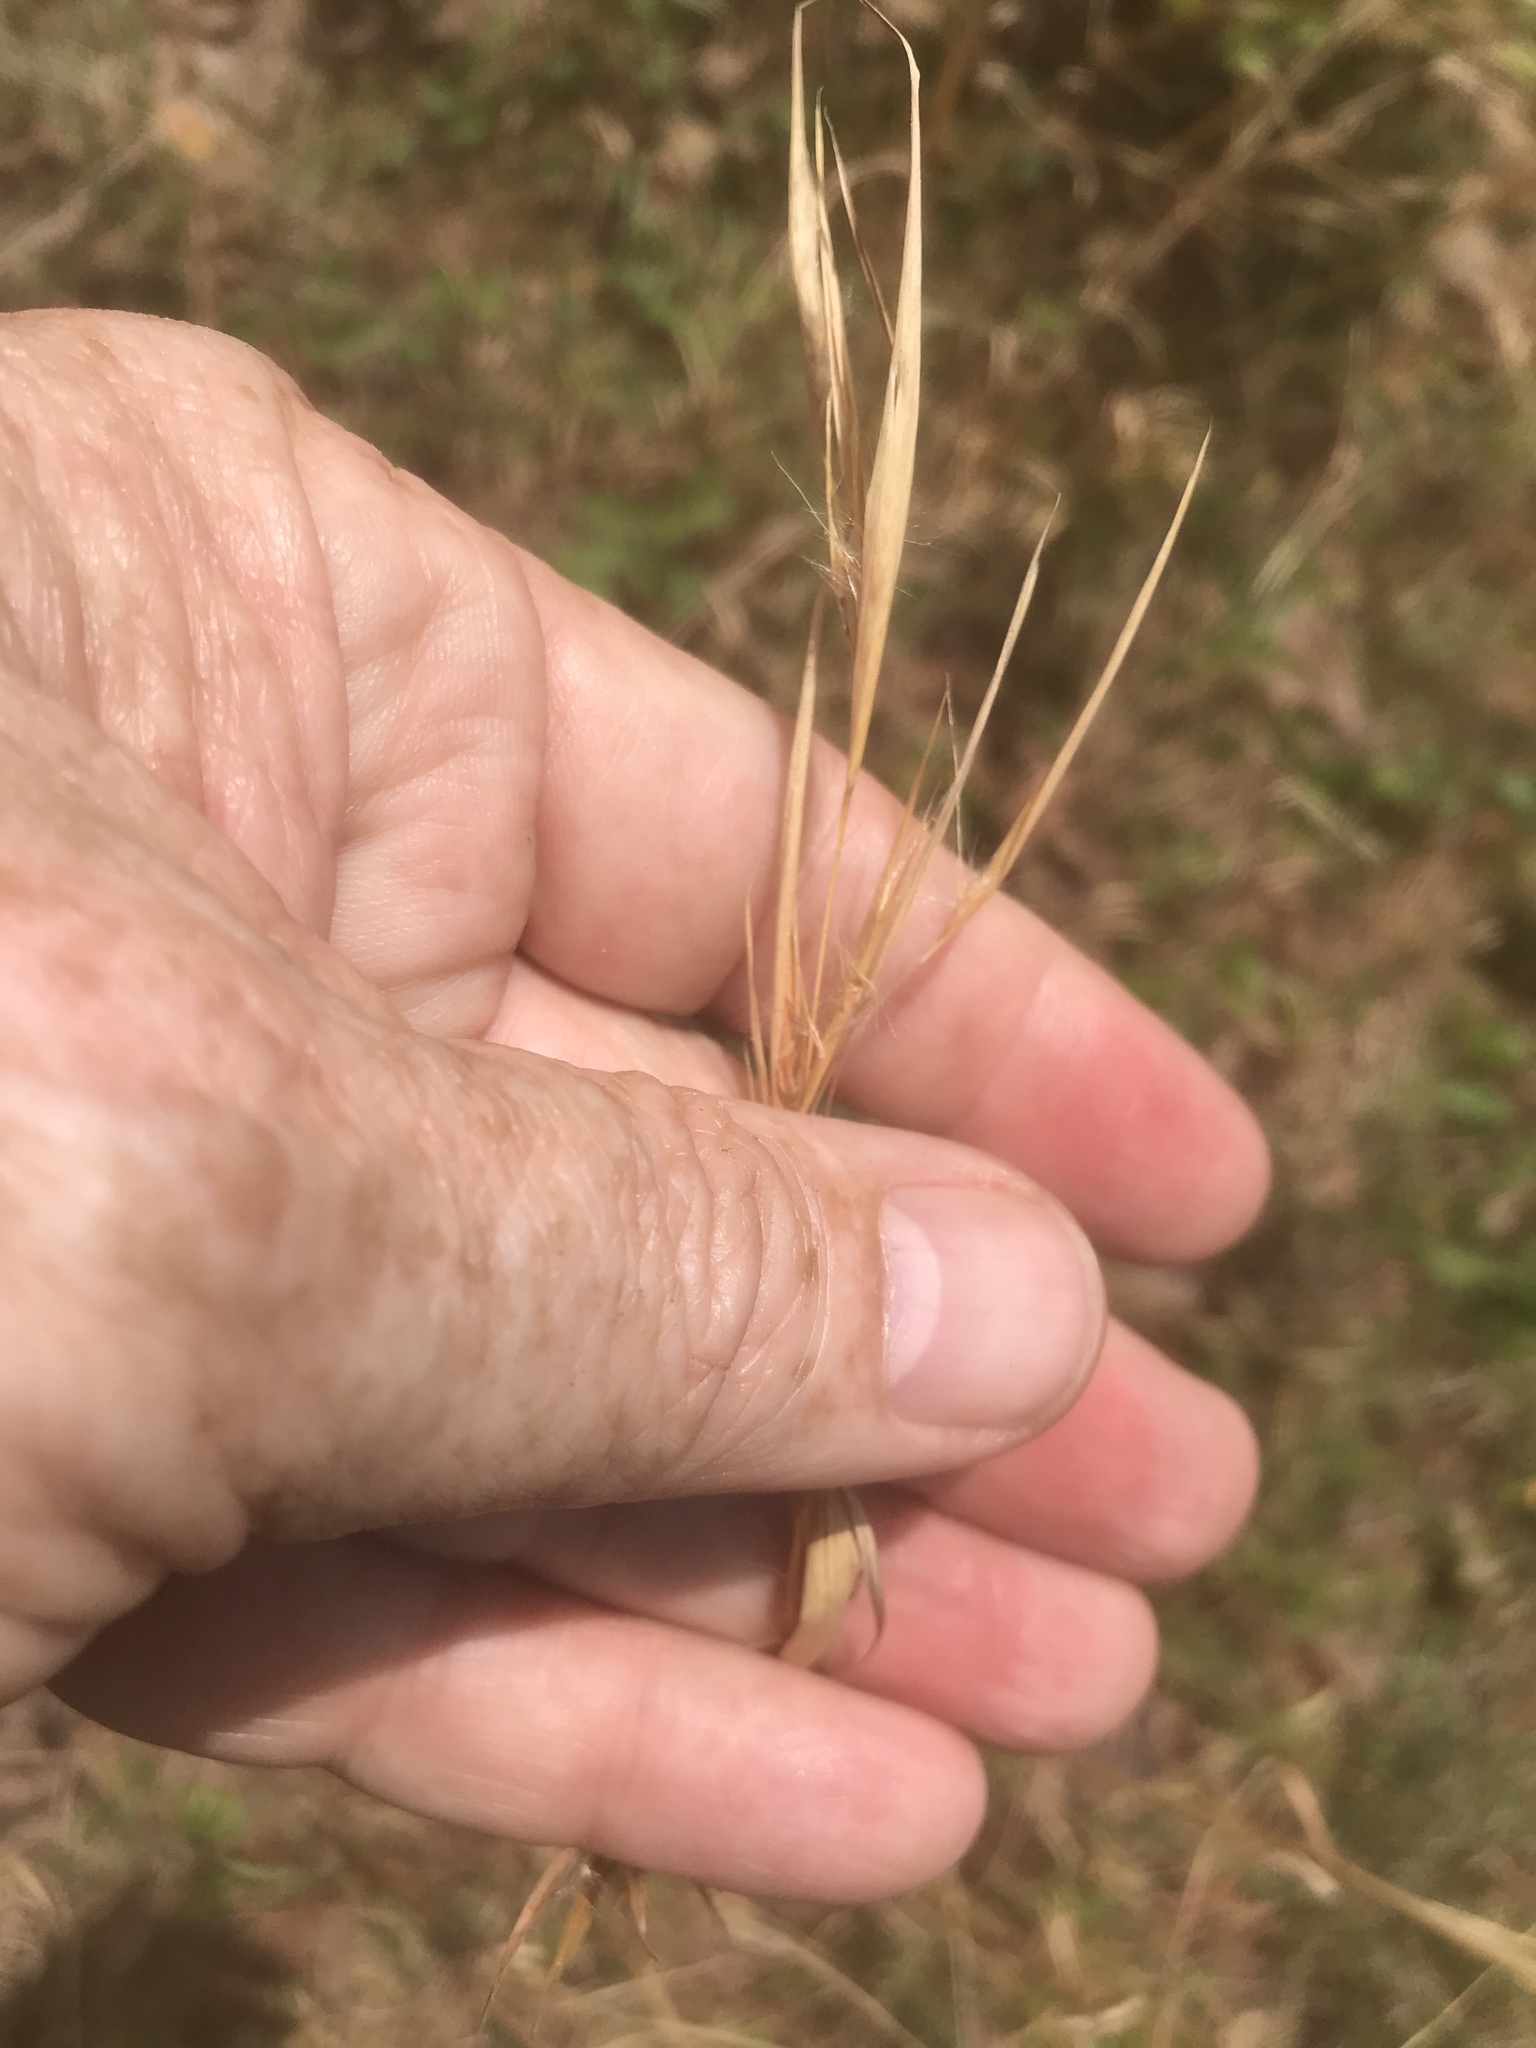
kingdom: Plantae
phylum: Tracheophyta
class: Liliopsida
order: Poales
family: Poaceae
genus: Andropogon
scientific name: Andropogon ternarius
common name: Split bluestem
